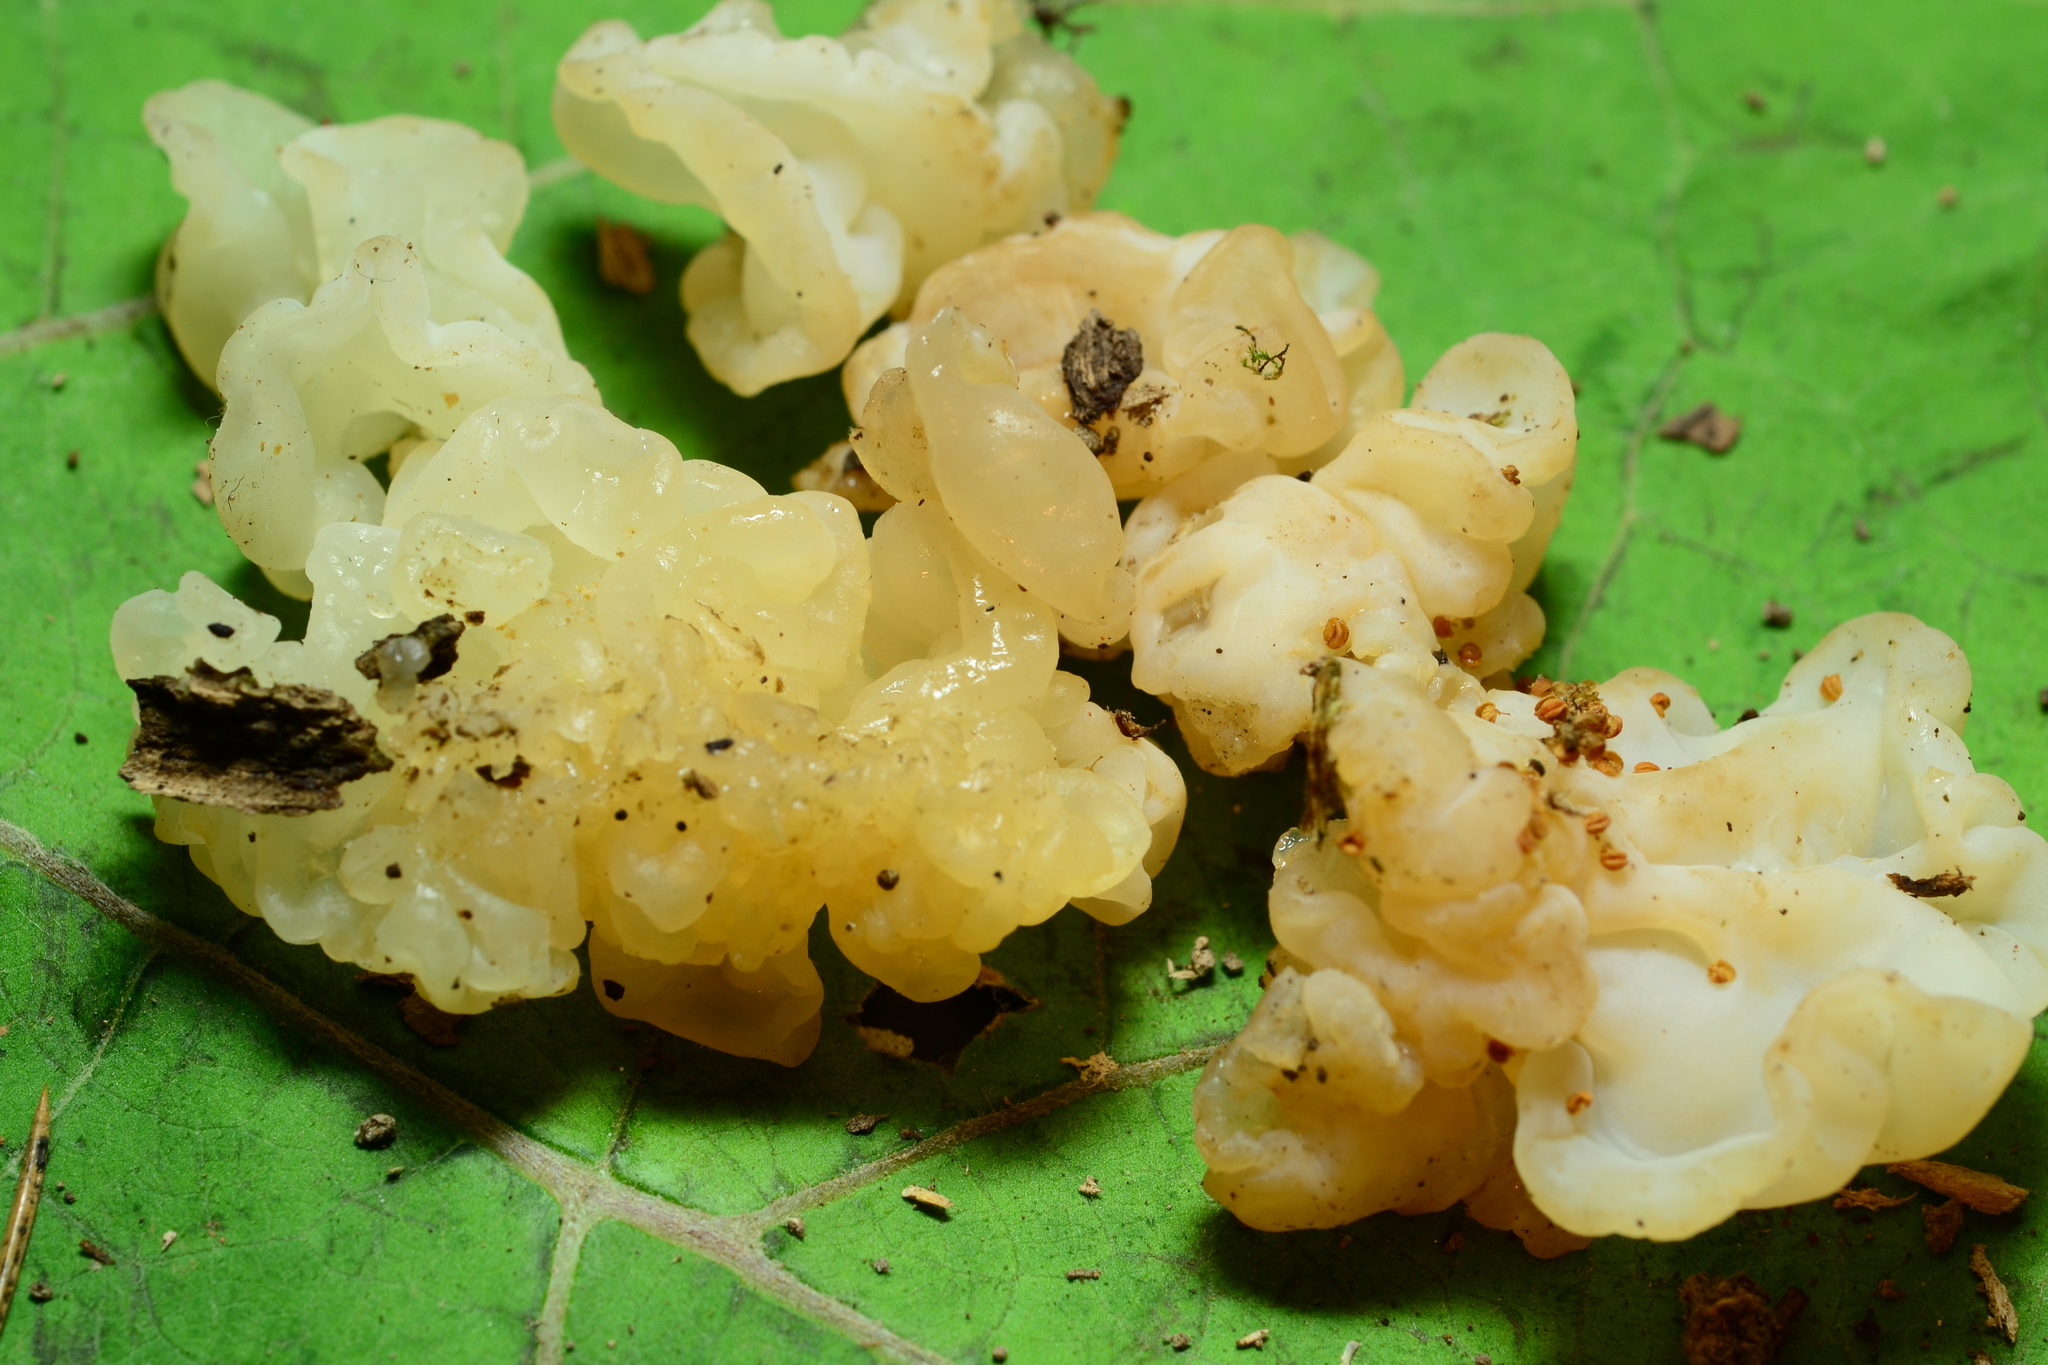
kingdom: Fungi
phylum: Basidiomycota
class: Agaricomycetes
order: Auriculariales
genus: Ductifera
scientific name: Ductifera pululahuana
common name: White jelly fungus
